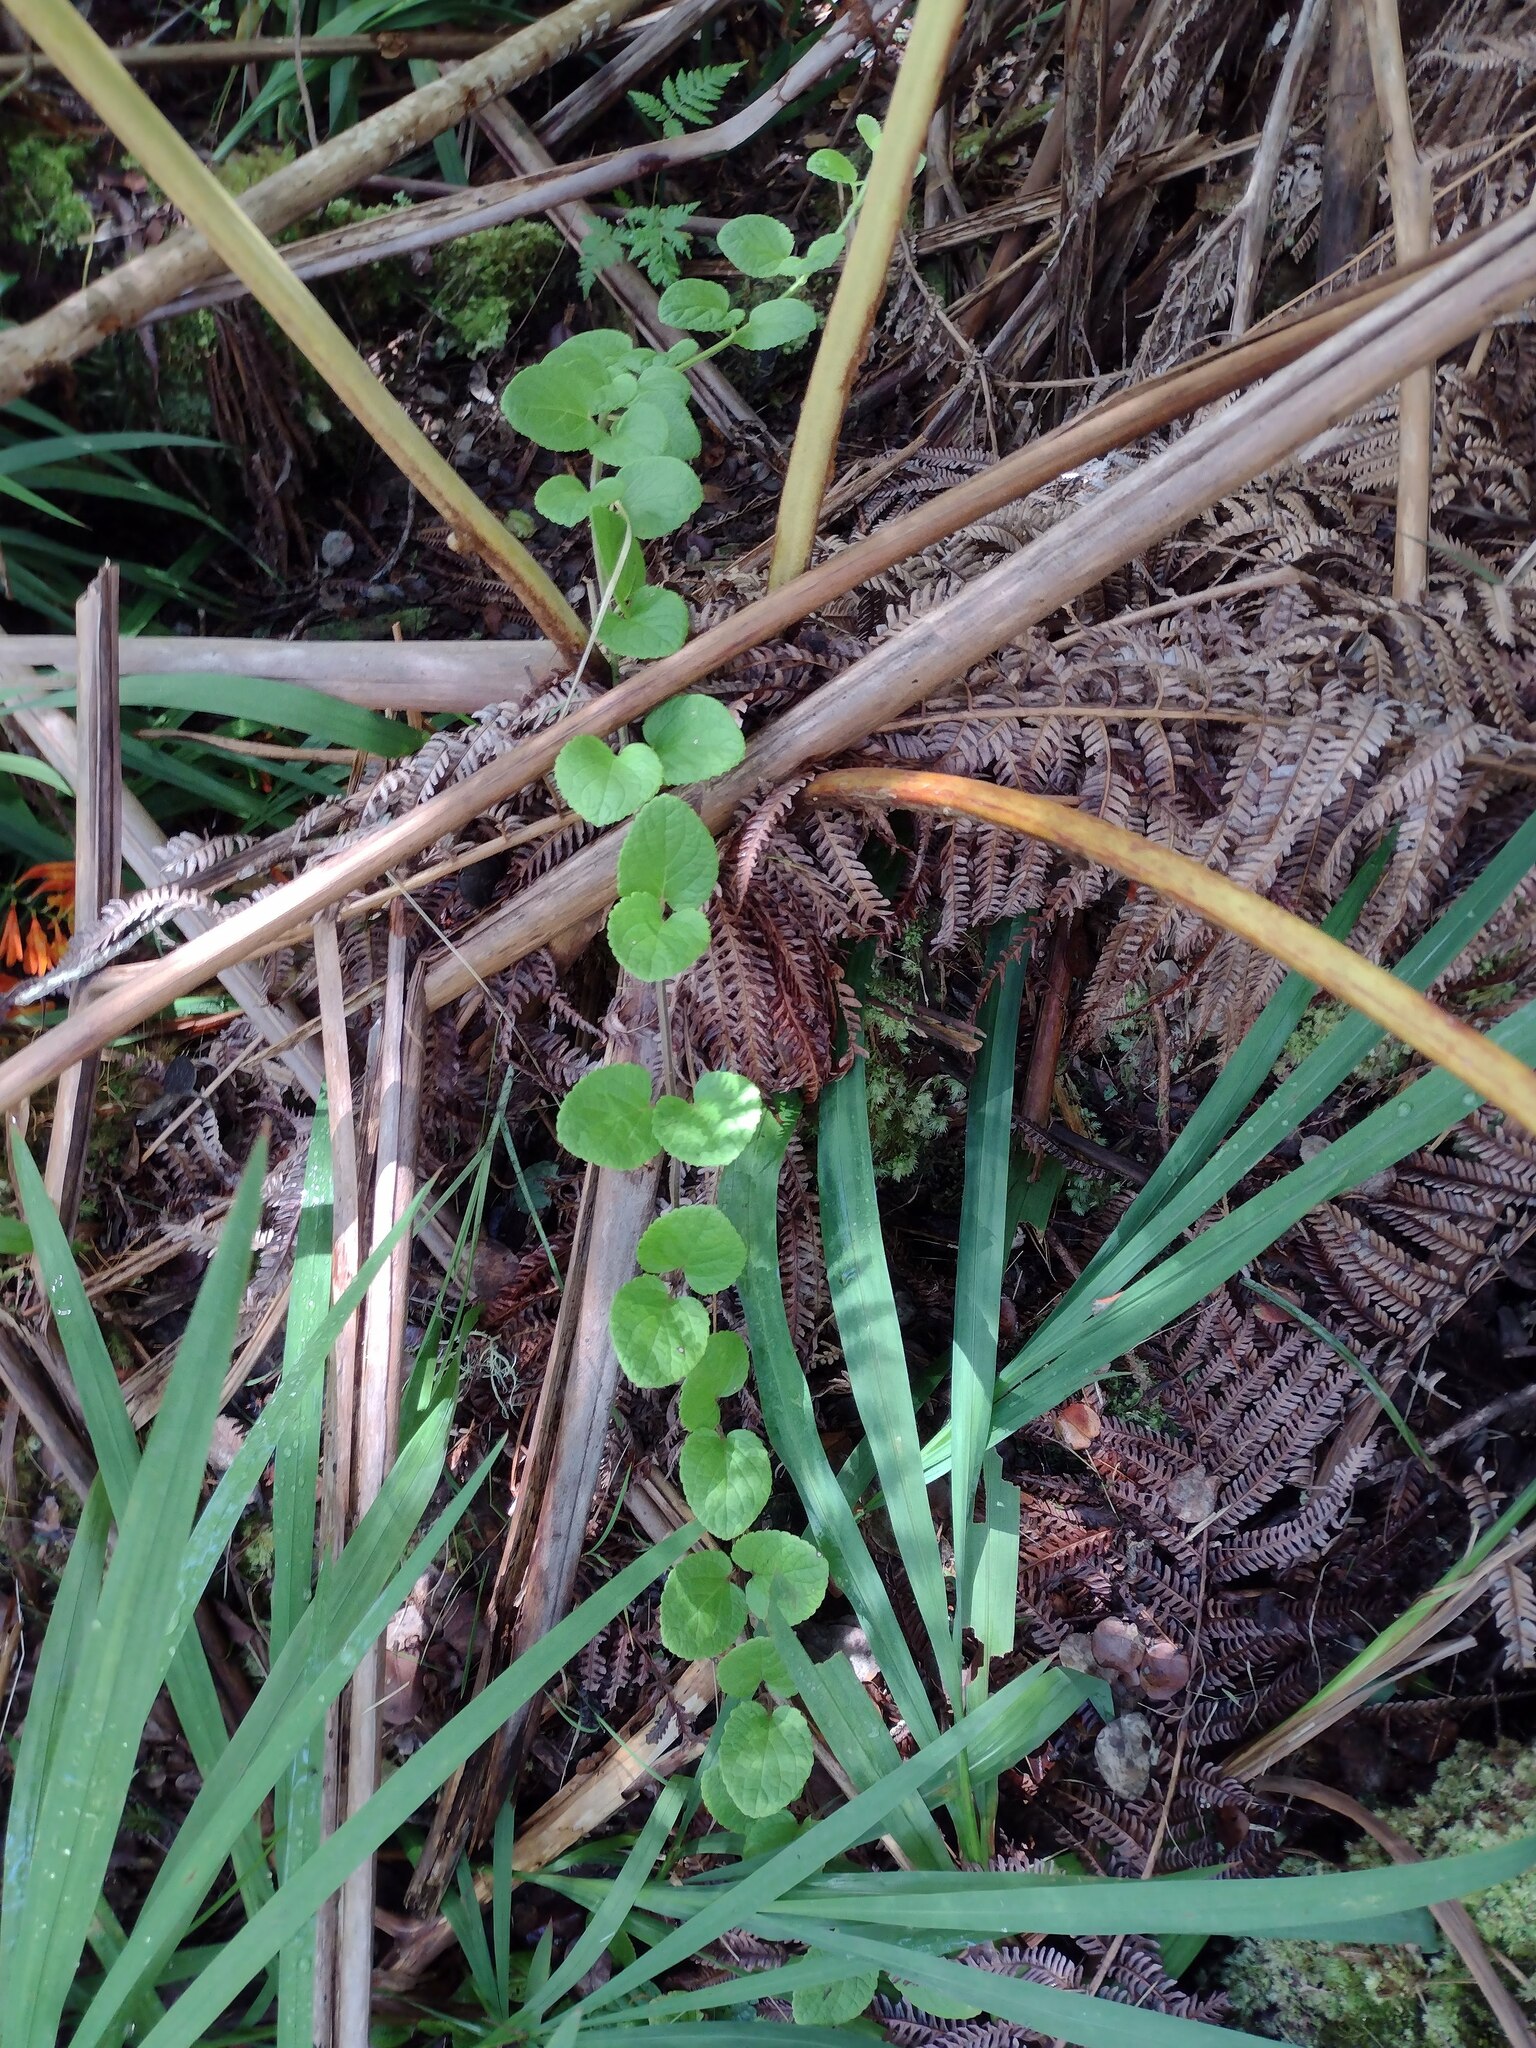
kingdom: Plantae
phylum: Tracheophyta
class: Magnoliopsida
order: Lamiales
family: Lamiaceae
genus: Stenogyne
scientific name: Stenogyne calaminthoides
